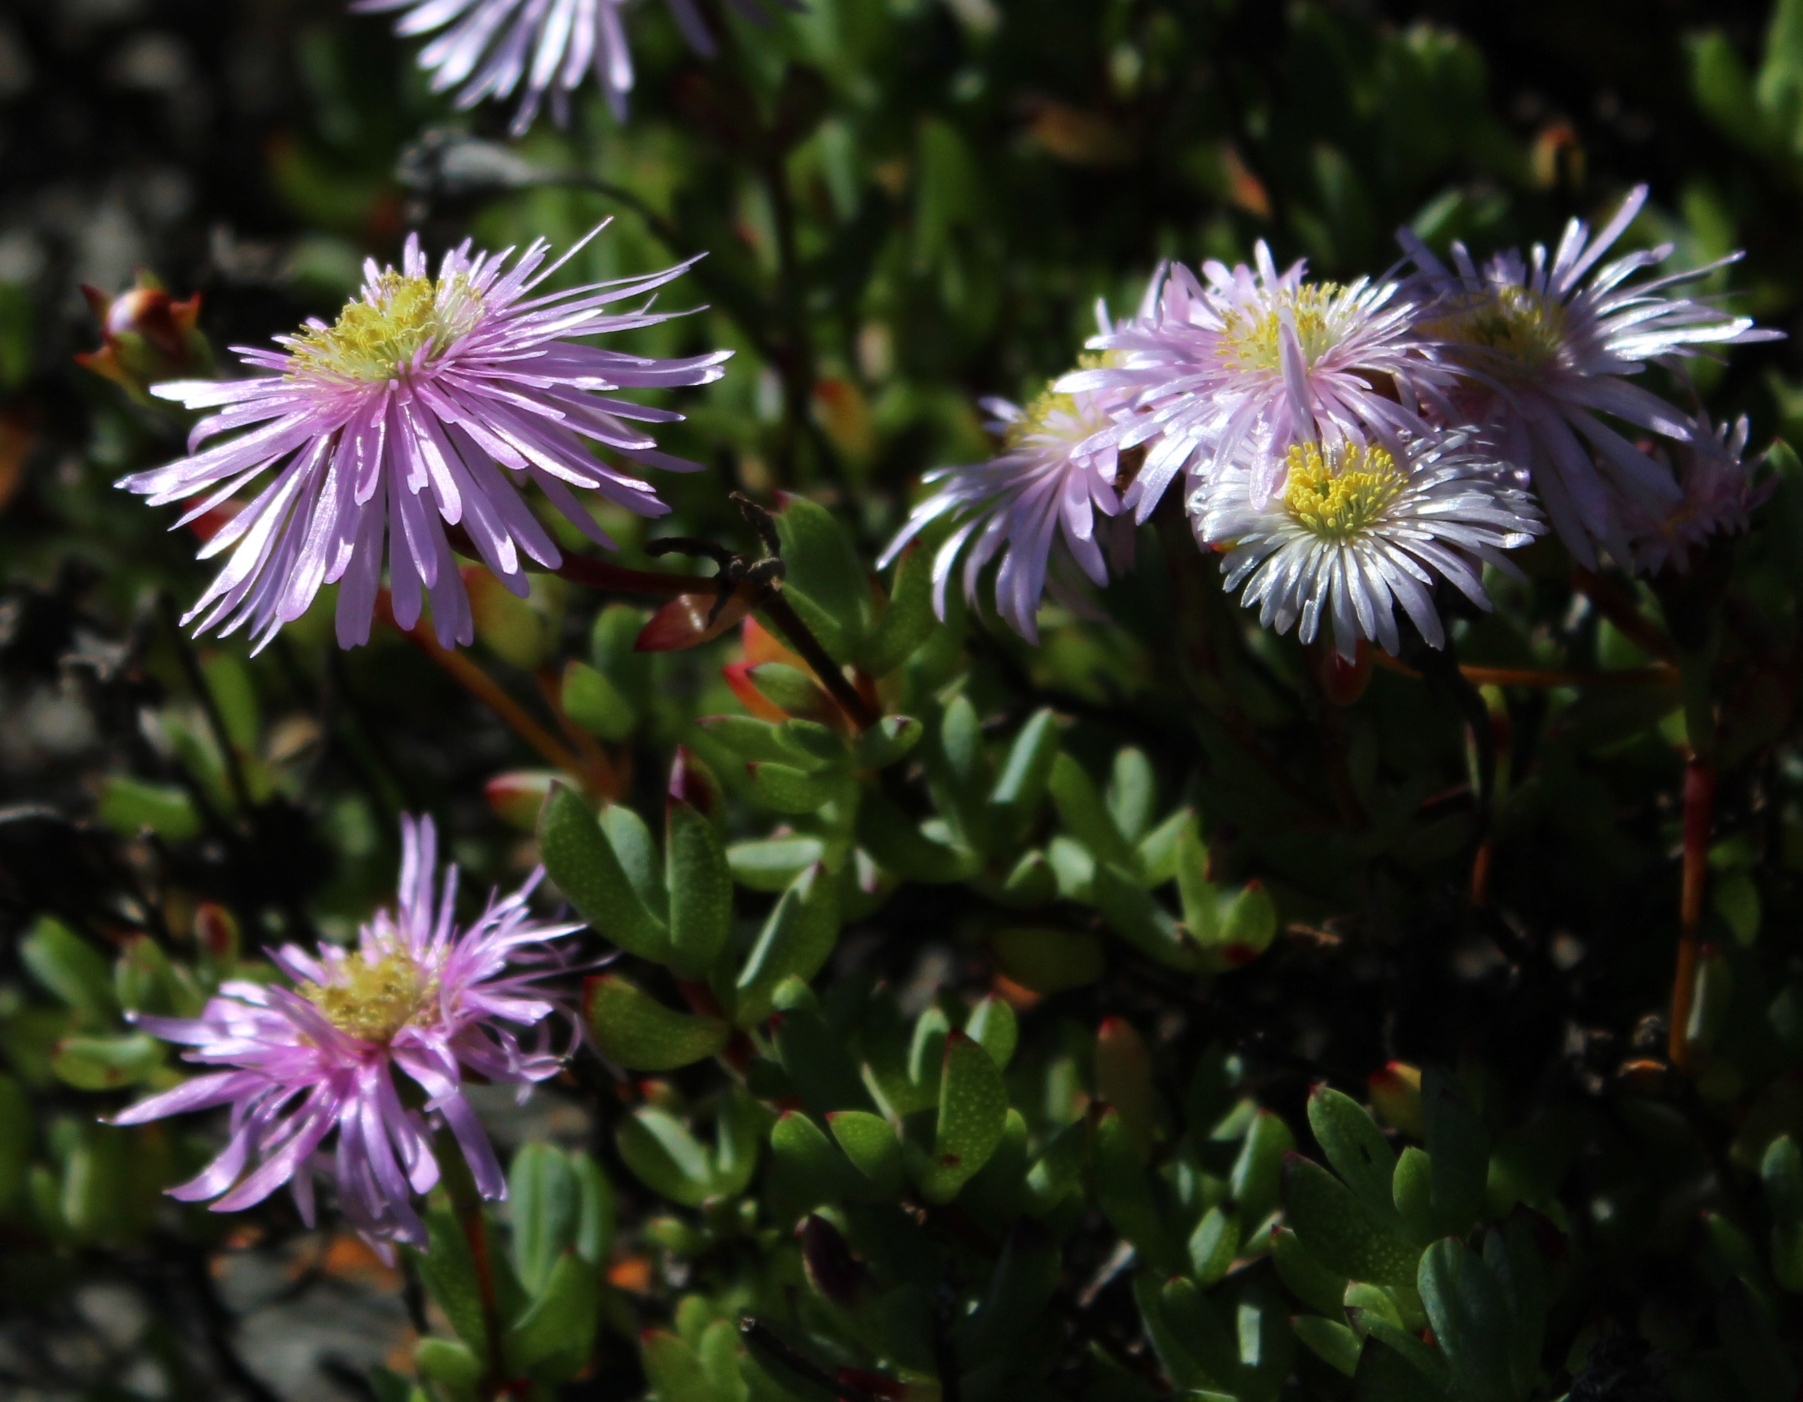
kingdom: Plantae
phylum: Tracheophyta
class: Magnoliopsida
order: Caryophyllales
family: Aizoaceae
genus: Oscularia
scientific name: Oscularia falciformis
